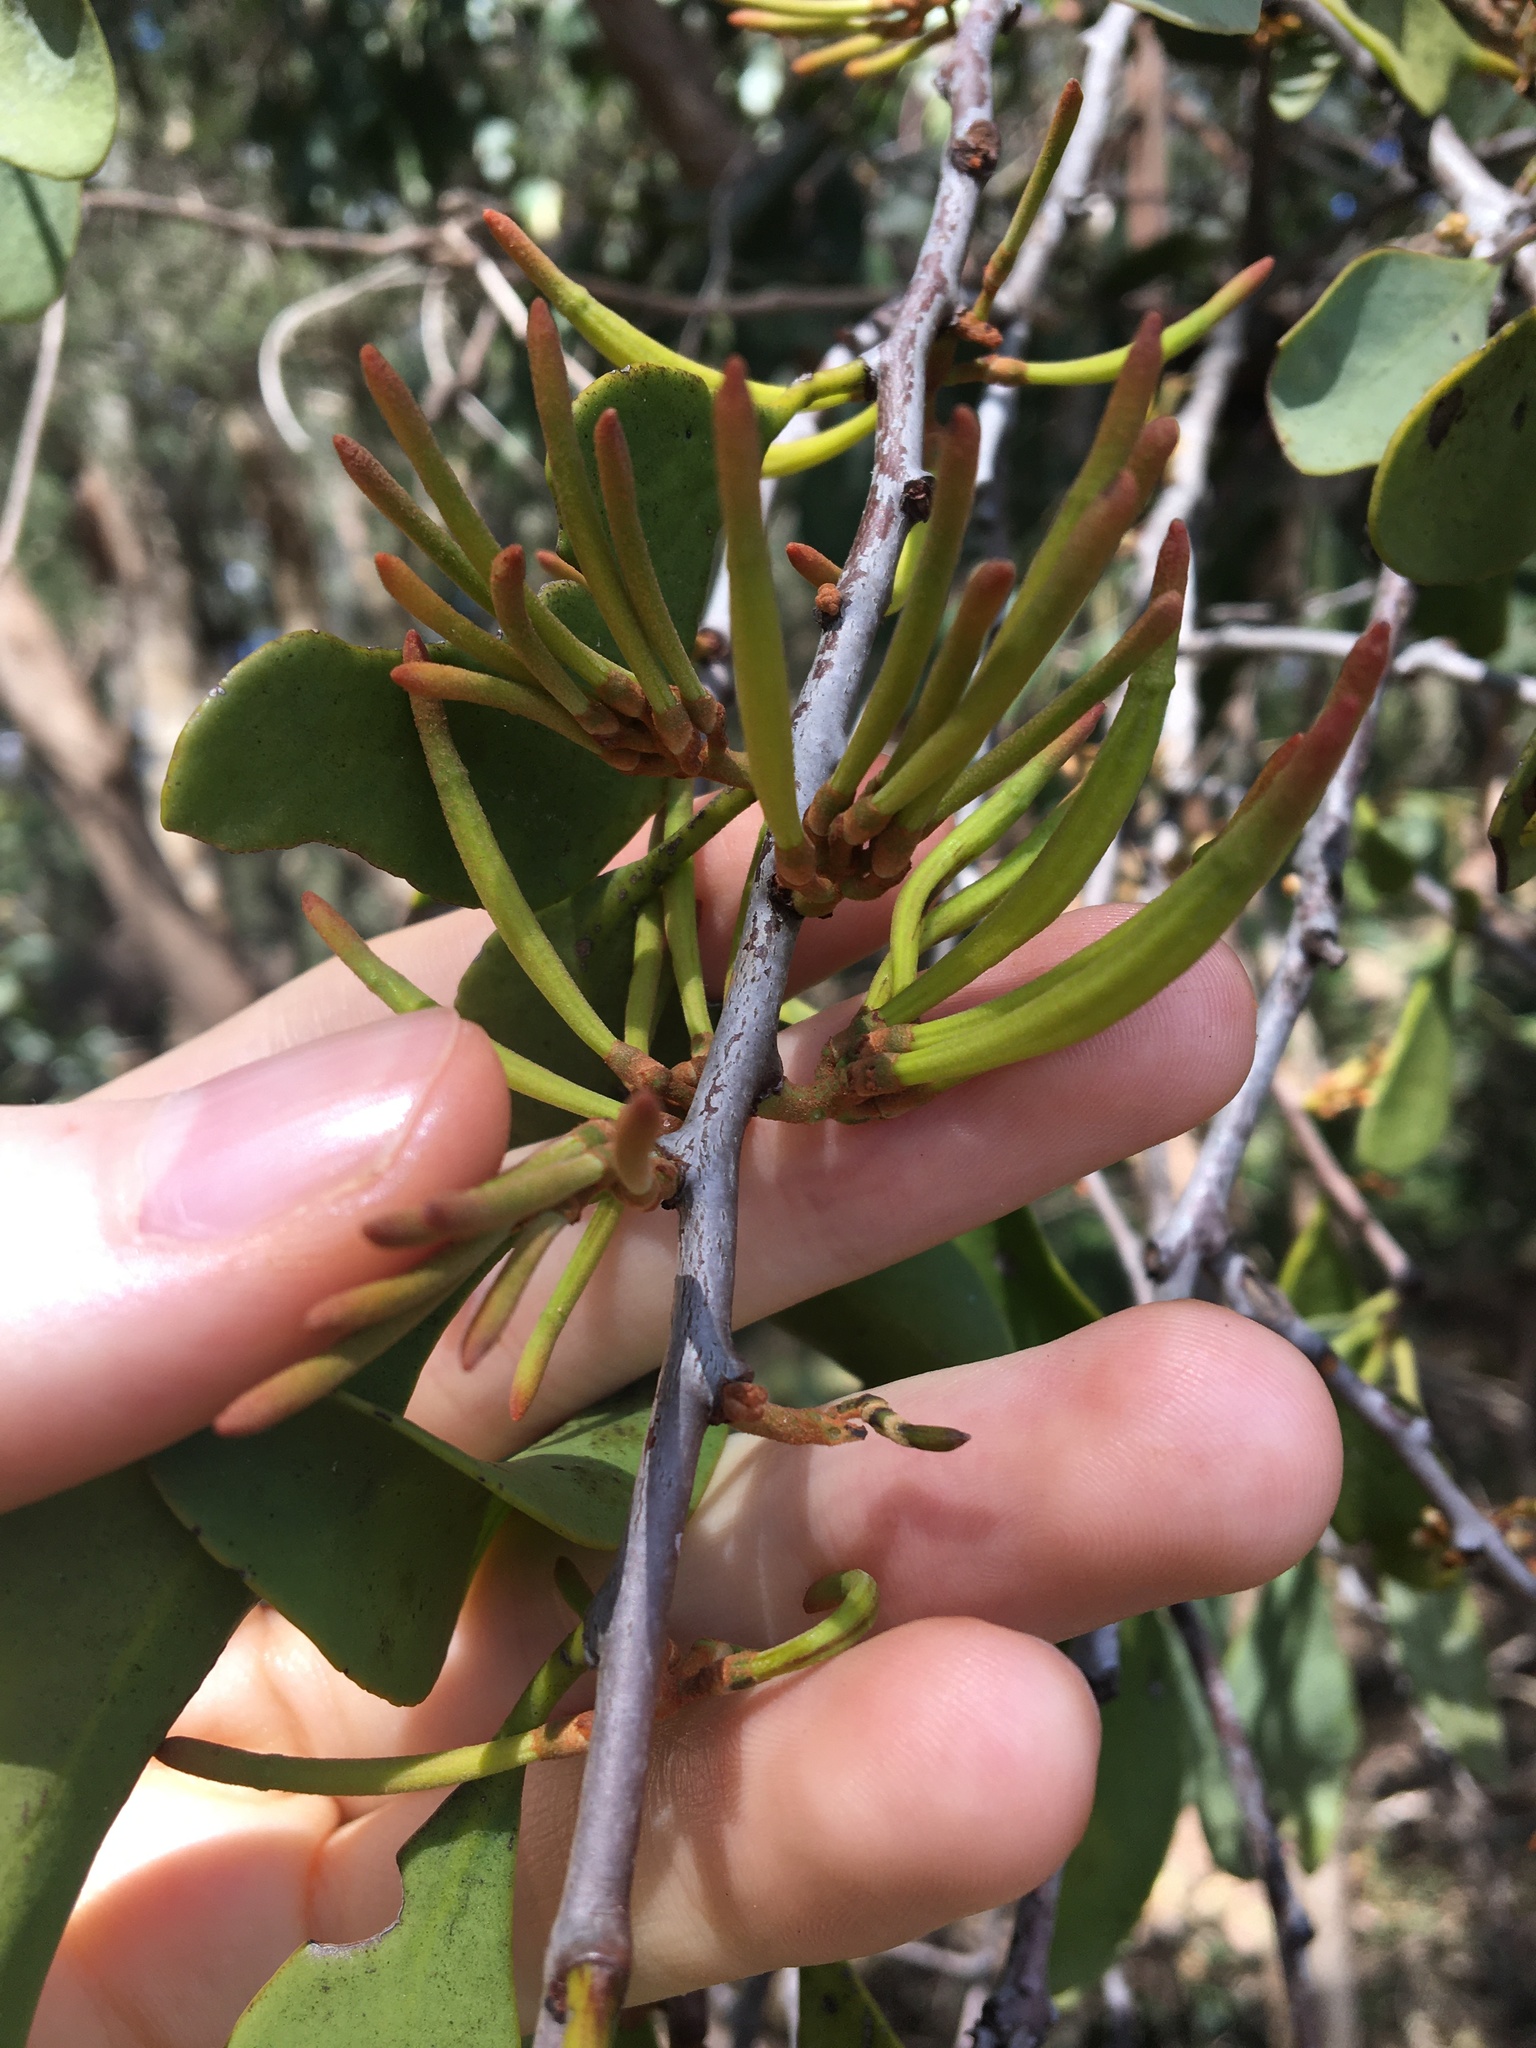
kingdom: Plantae
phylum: Tracheophyta
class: Magnoliopsida
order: Santalales
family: Loranthaceae
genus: Dendrophthoe
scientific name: Dendrophthoe vitellina
